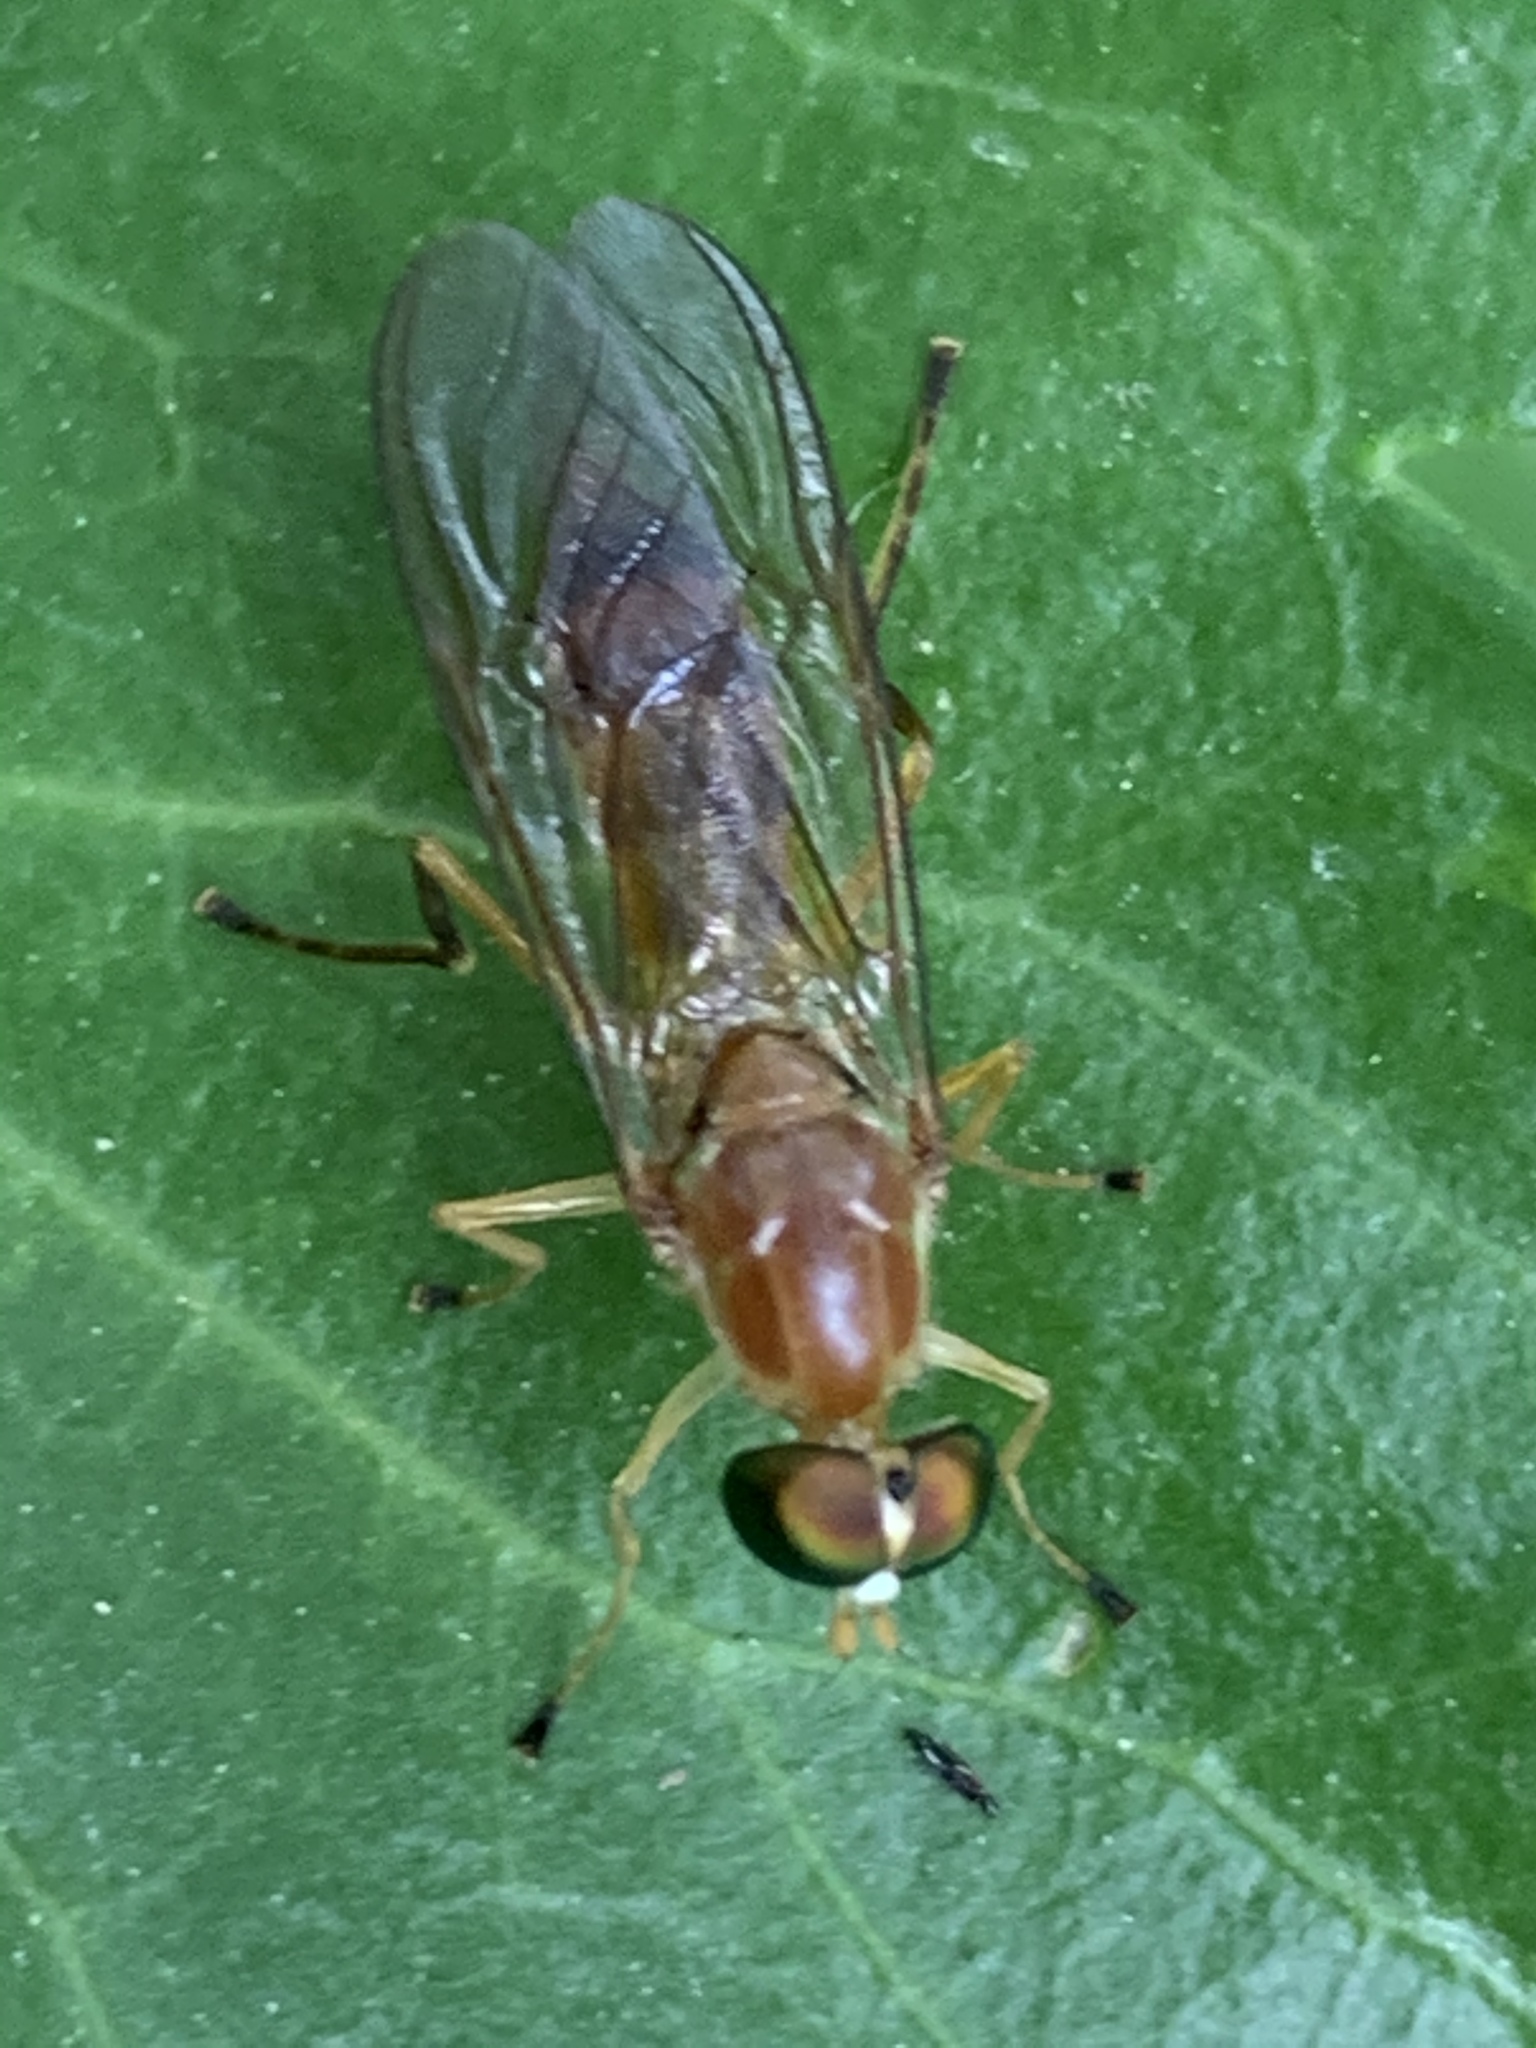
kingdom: Animalia
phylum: Arthropoda
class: Insecta
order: Diptera
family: Stratiomyidae
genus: Ptecticus
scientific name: Ptecticus trivittatus
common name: Compost fly
